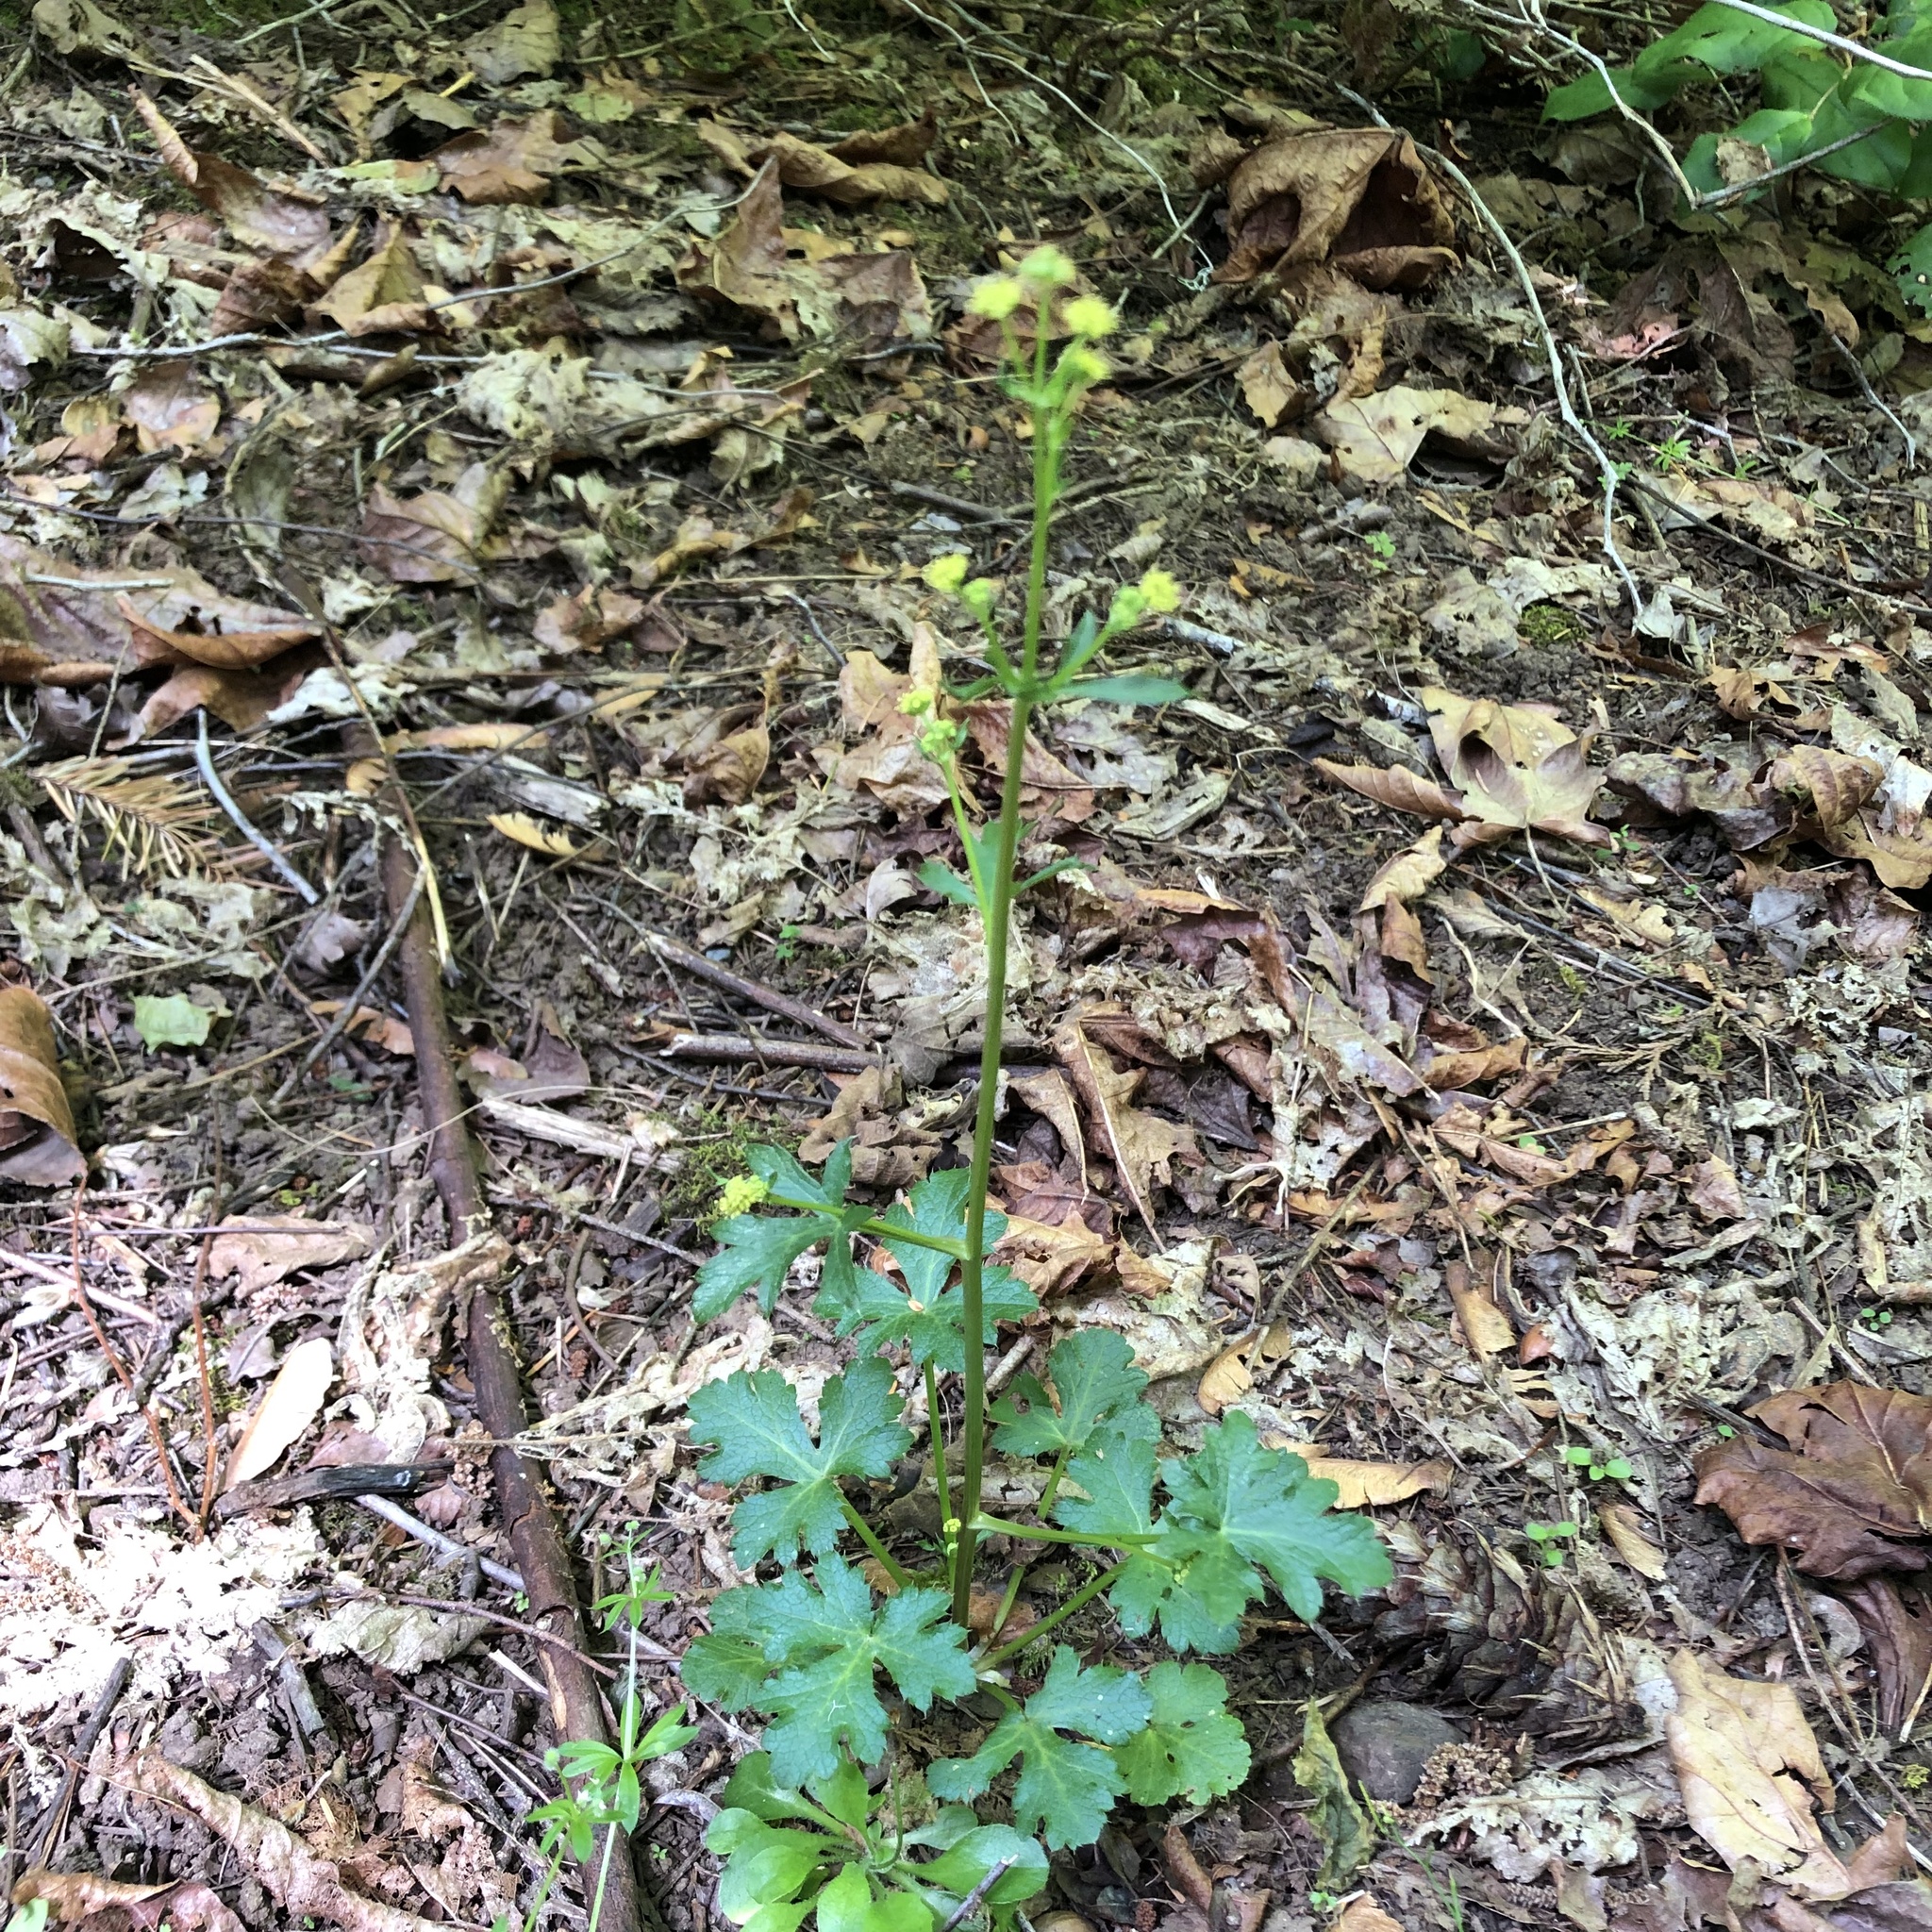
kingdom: Plantae
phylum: Tracheophyta
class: Magnoliopsida
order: Apiales
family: Apiaceae
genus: Sanicula
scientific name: Sanicula crassicaulis
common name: Western snakeroot
